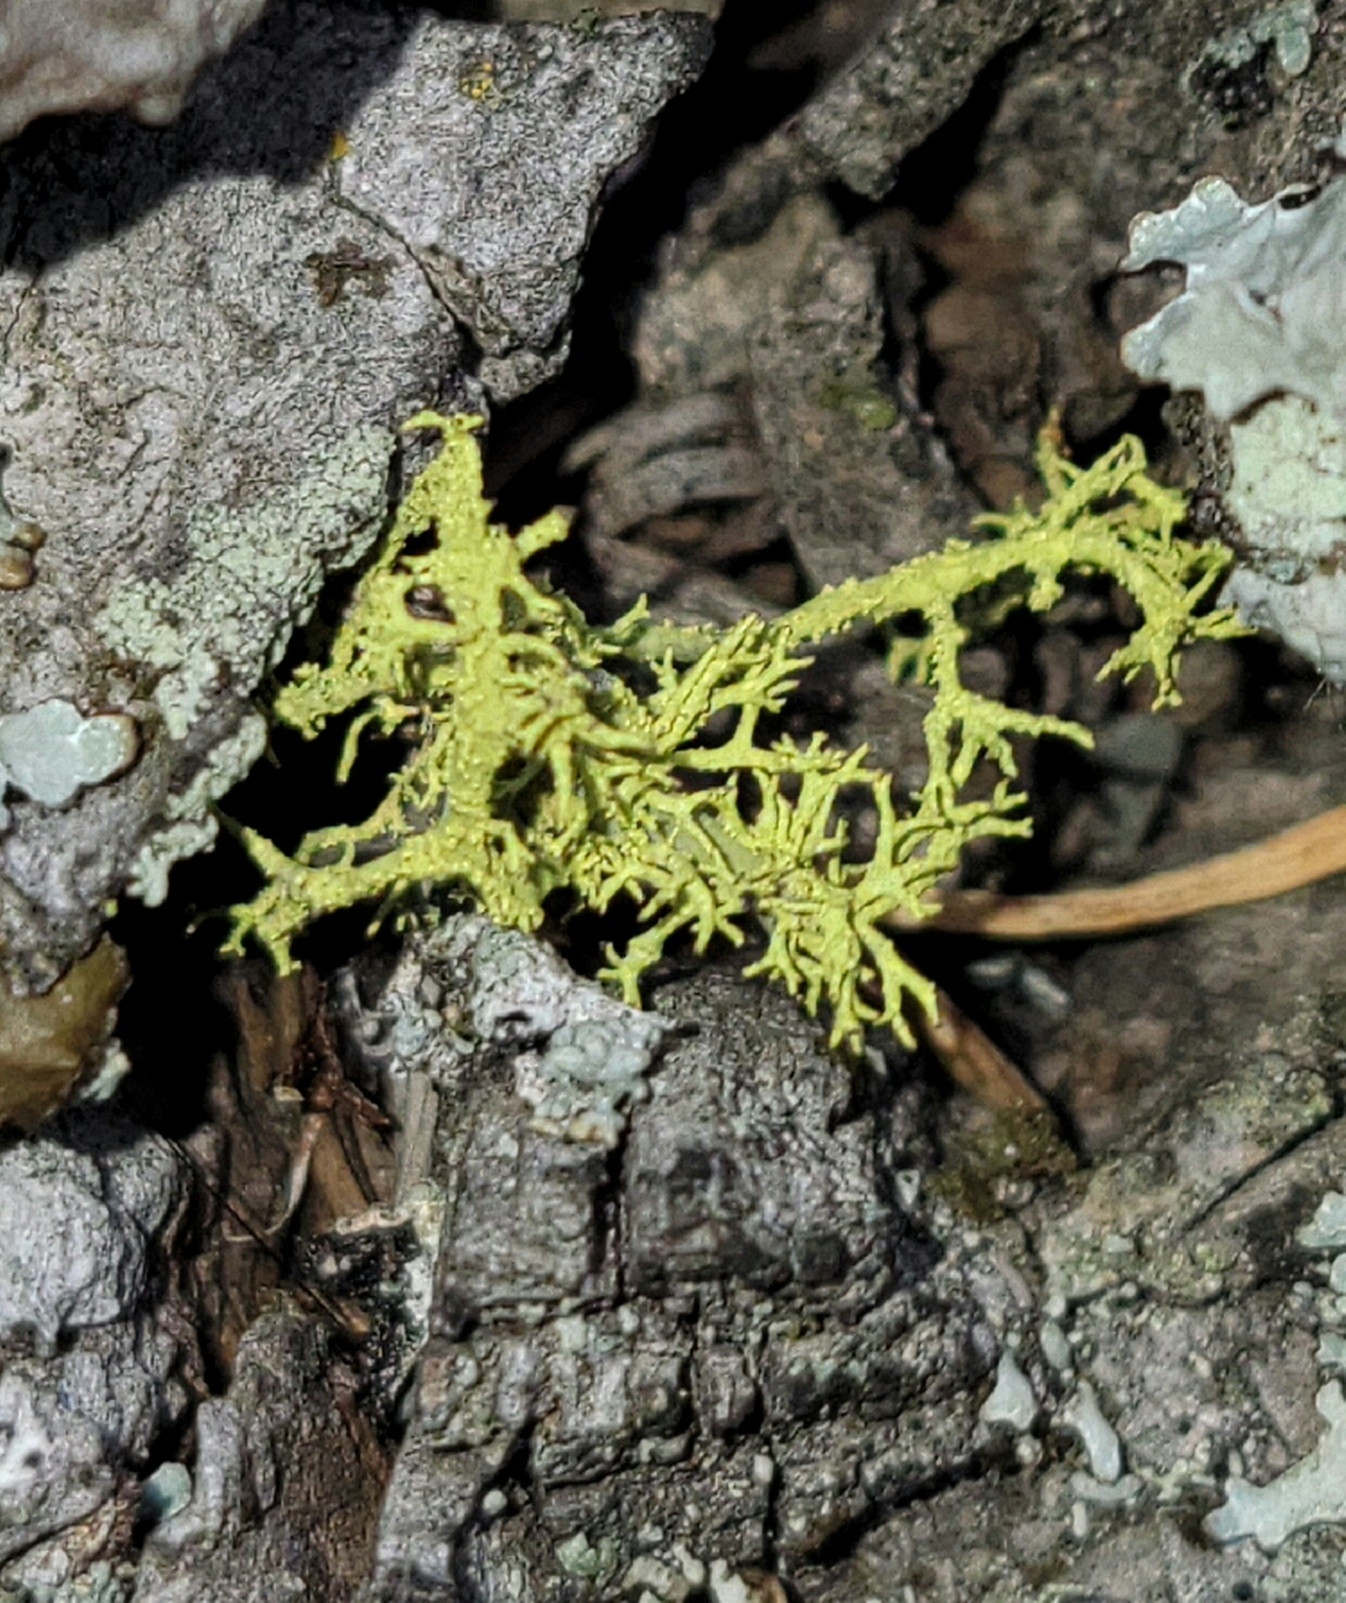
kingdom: Fungi
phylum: Ascomycota
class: Lecanoromycetes
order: Lecanorales
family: Parmeliaceae
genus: Letharia
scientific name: Letharia vulpina
